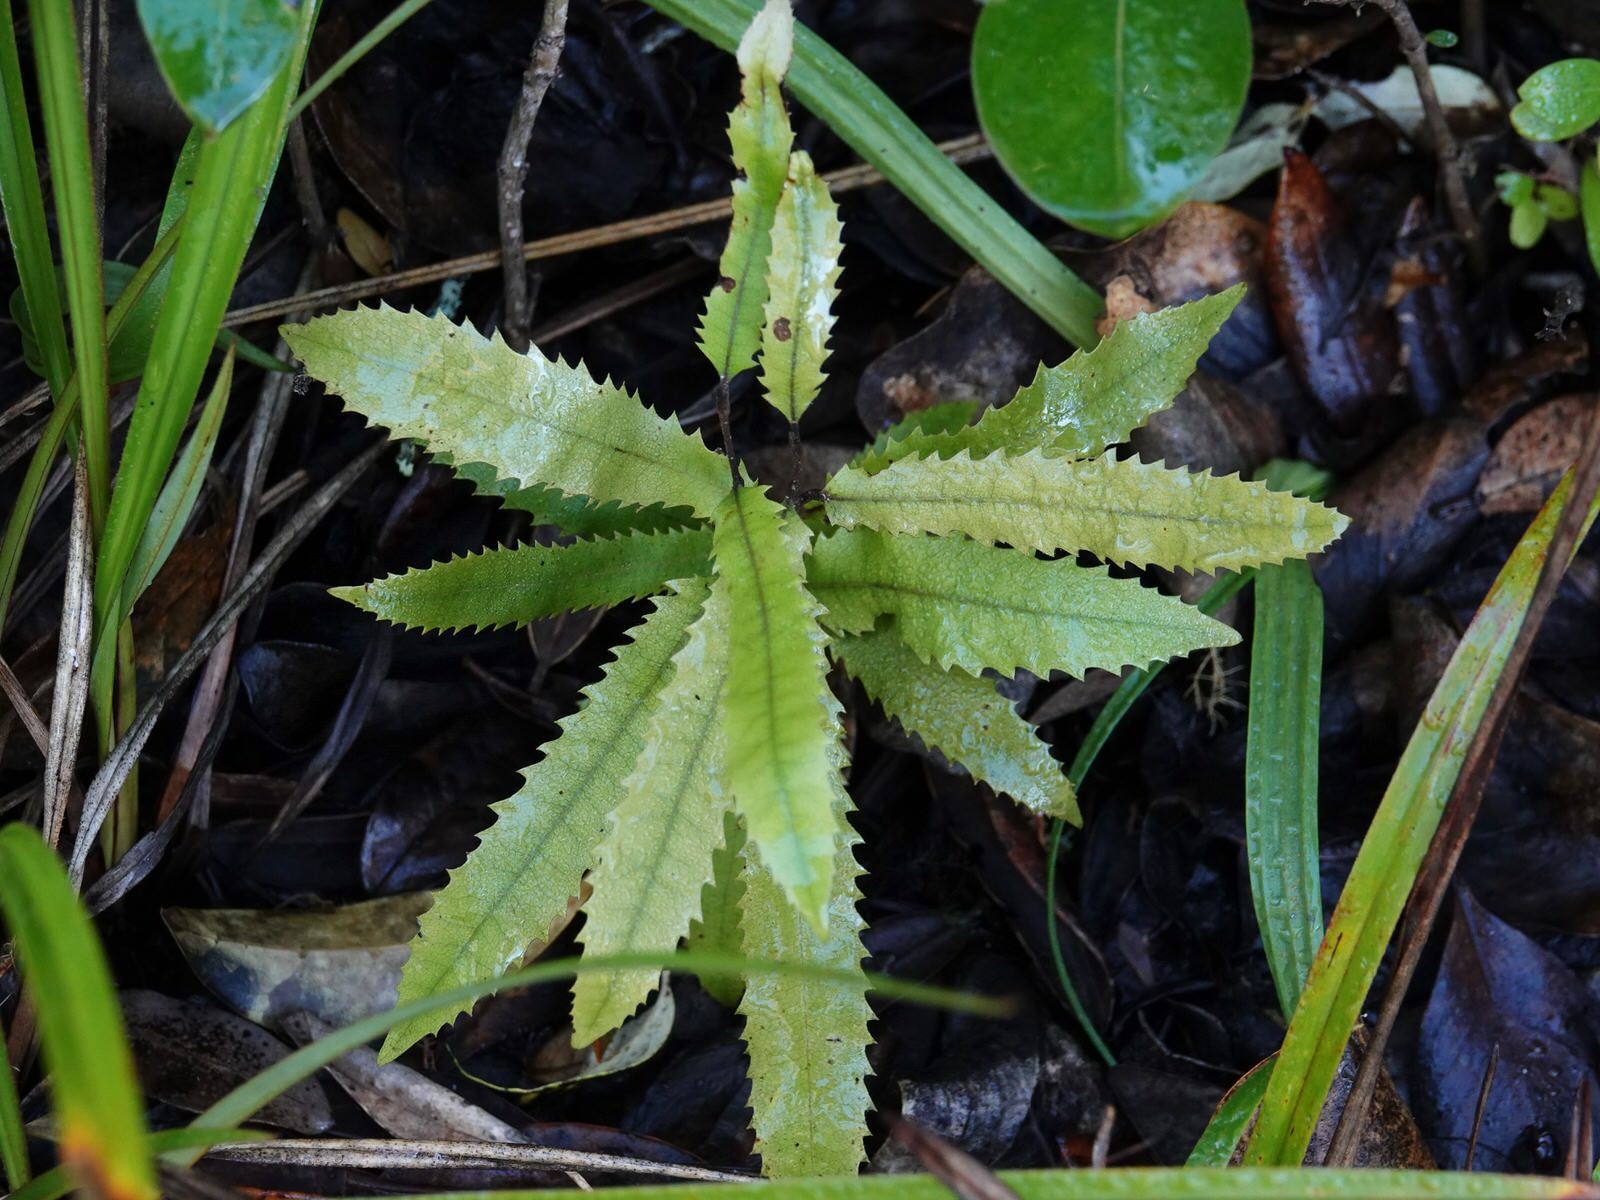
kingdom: Plantae
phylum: Tracheophyta
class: Magnoliopsida
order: Proteales
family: Proteaceae
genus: Knightia
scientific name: Knightia excelsa
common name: New zealand-honeysuckle
